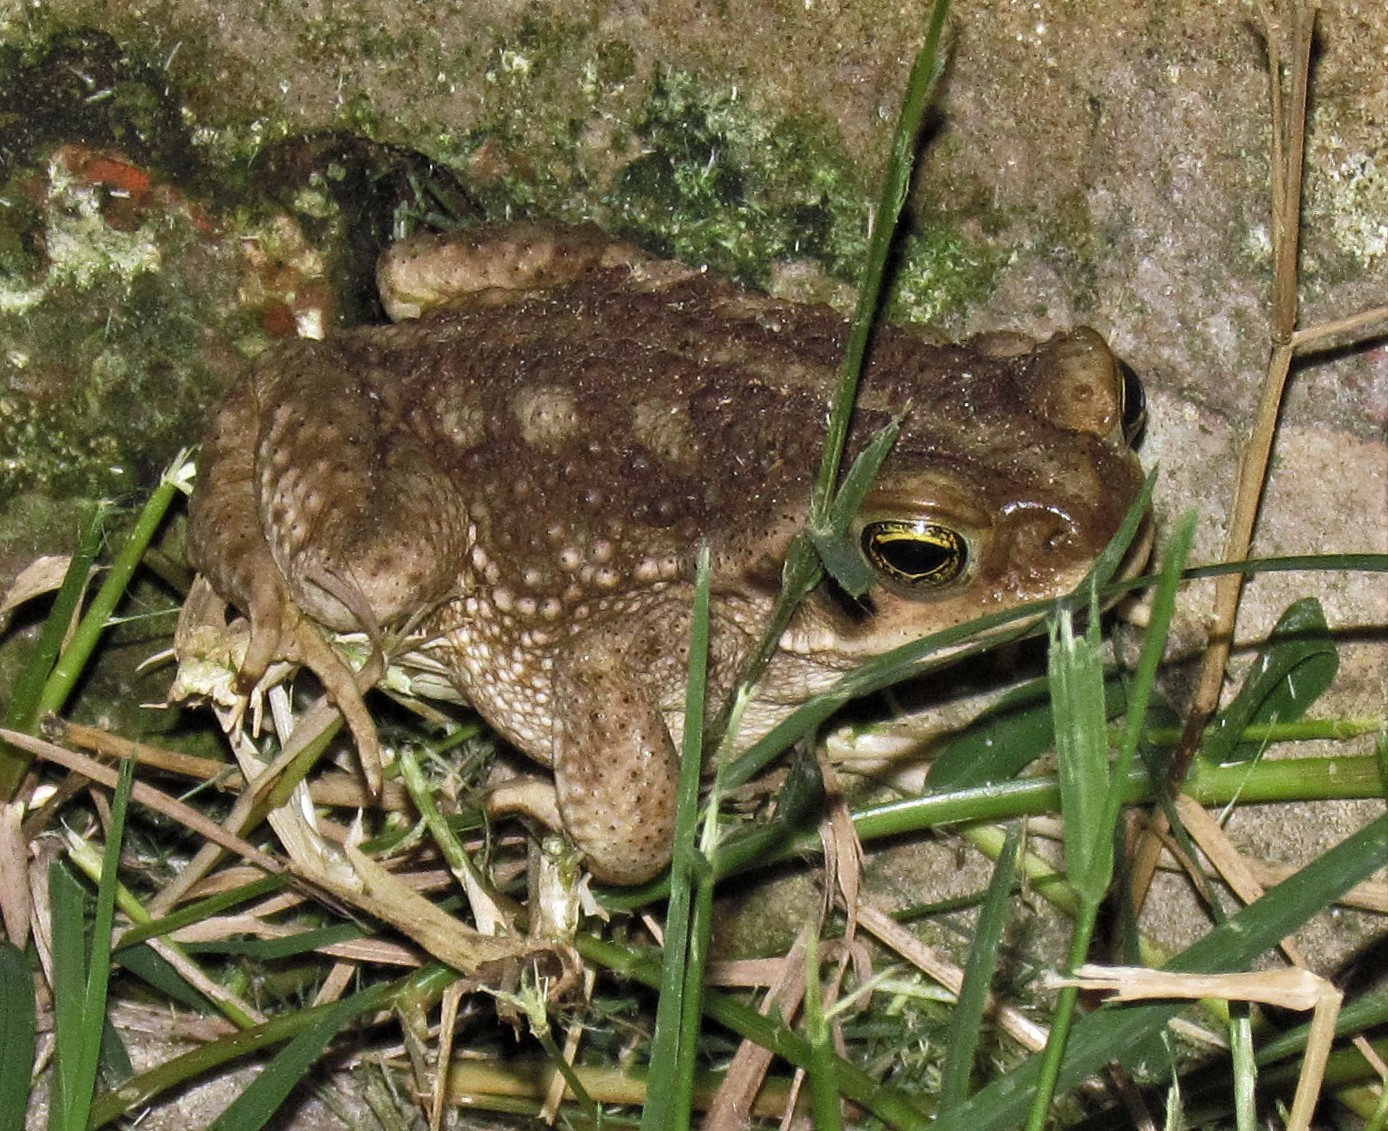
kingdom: Animalia
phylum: Chordata
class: Amphibia
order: Anura
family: Bufonidae
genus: Rhinella
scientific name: Rhinella arenarum
